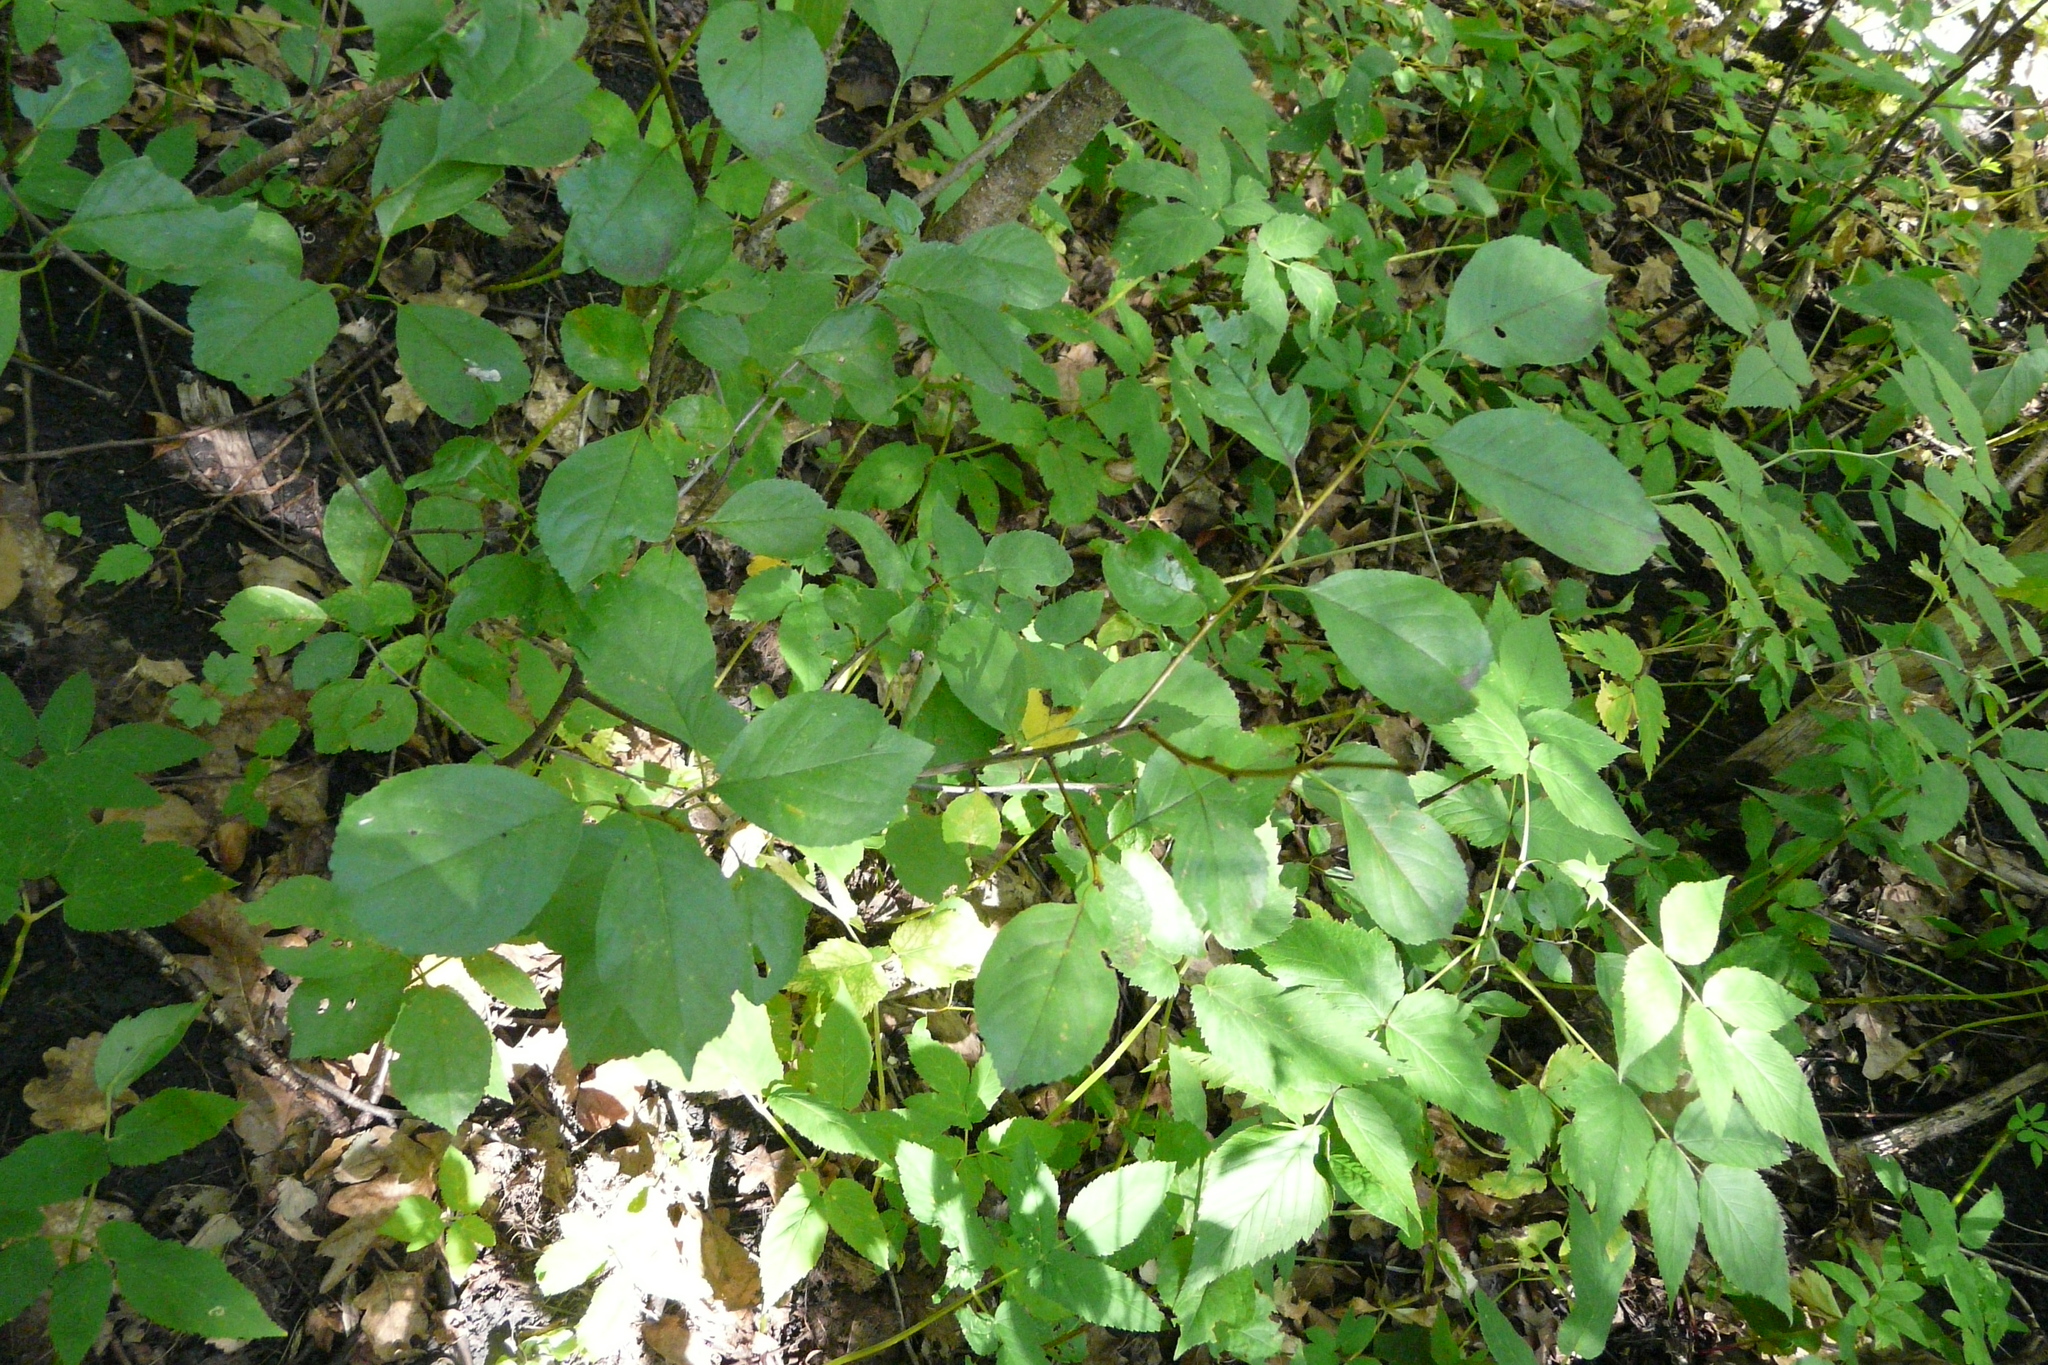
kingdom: Plantae
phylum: Tracheophyta
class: Magnoliopsida
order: Rosales
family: Rosaceae
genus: Prunus
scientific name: Prunus fruticosa
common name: European dwarf cherry
